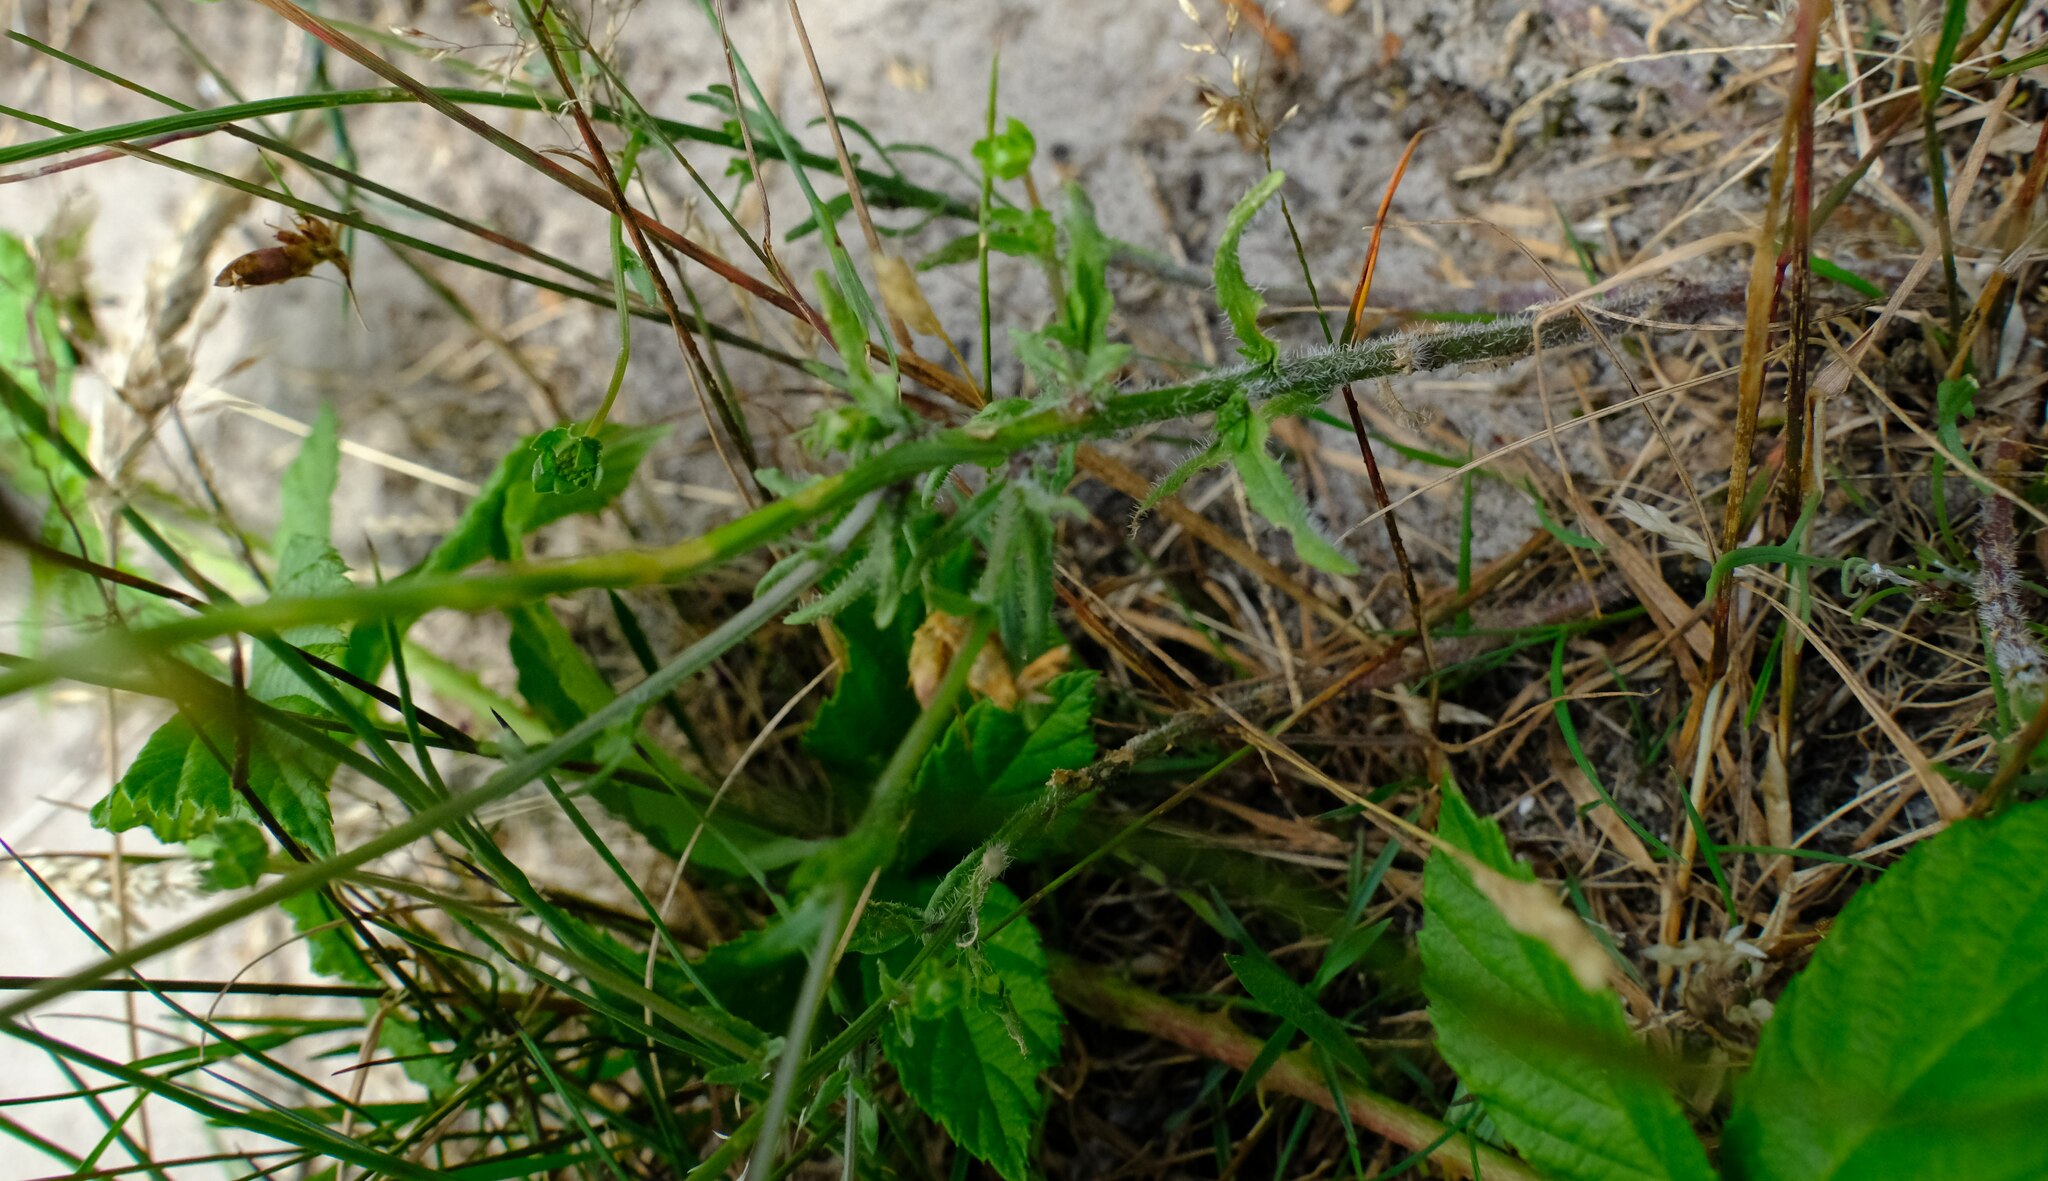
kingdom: Plantae
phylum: Tracheophyta
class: Magnoliopsida
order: Asterales
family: Campanulaceae
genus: Jasione
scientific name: Jasione montana
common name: Sheep's-bit
